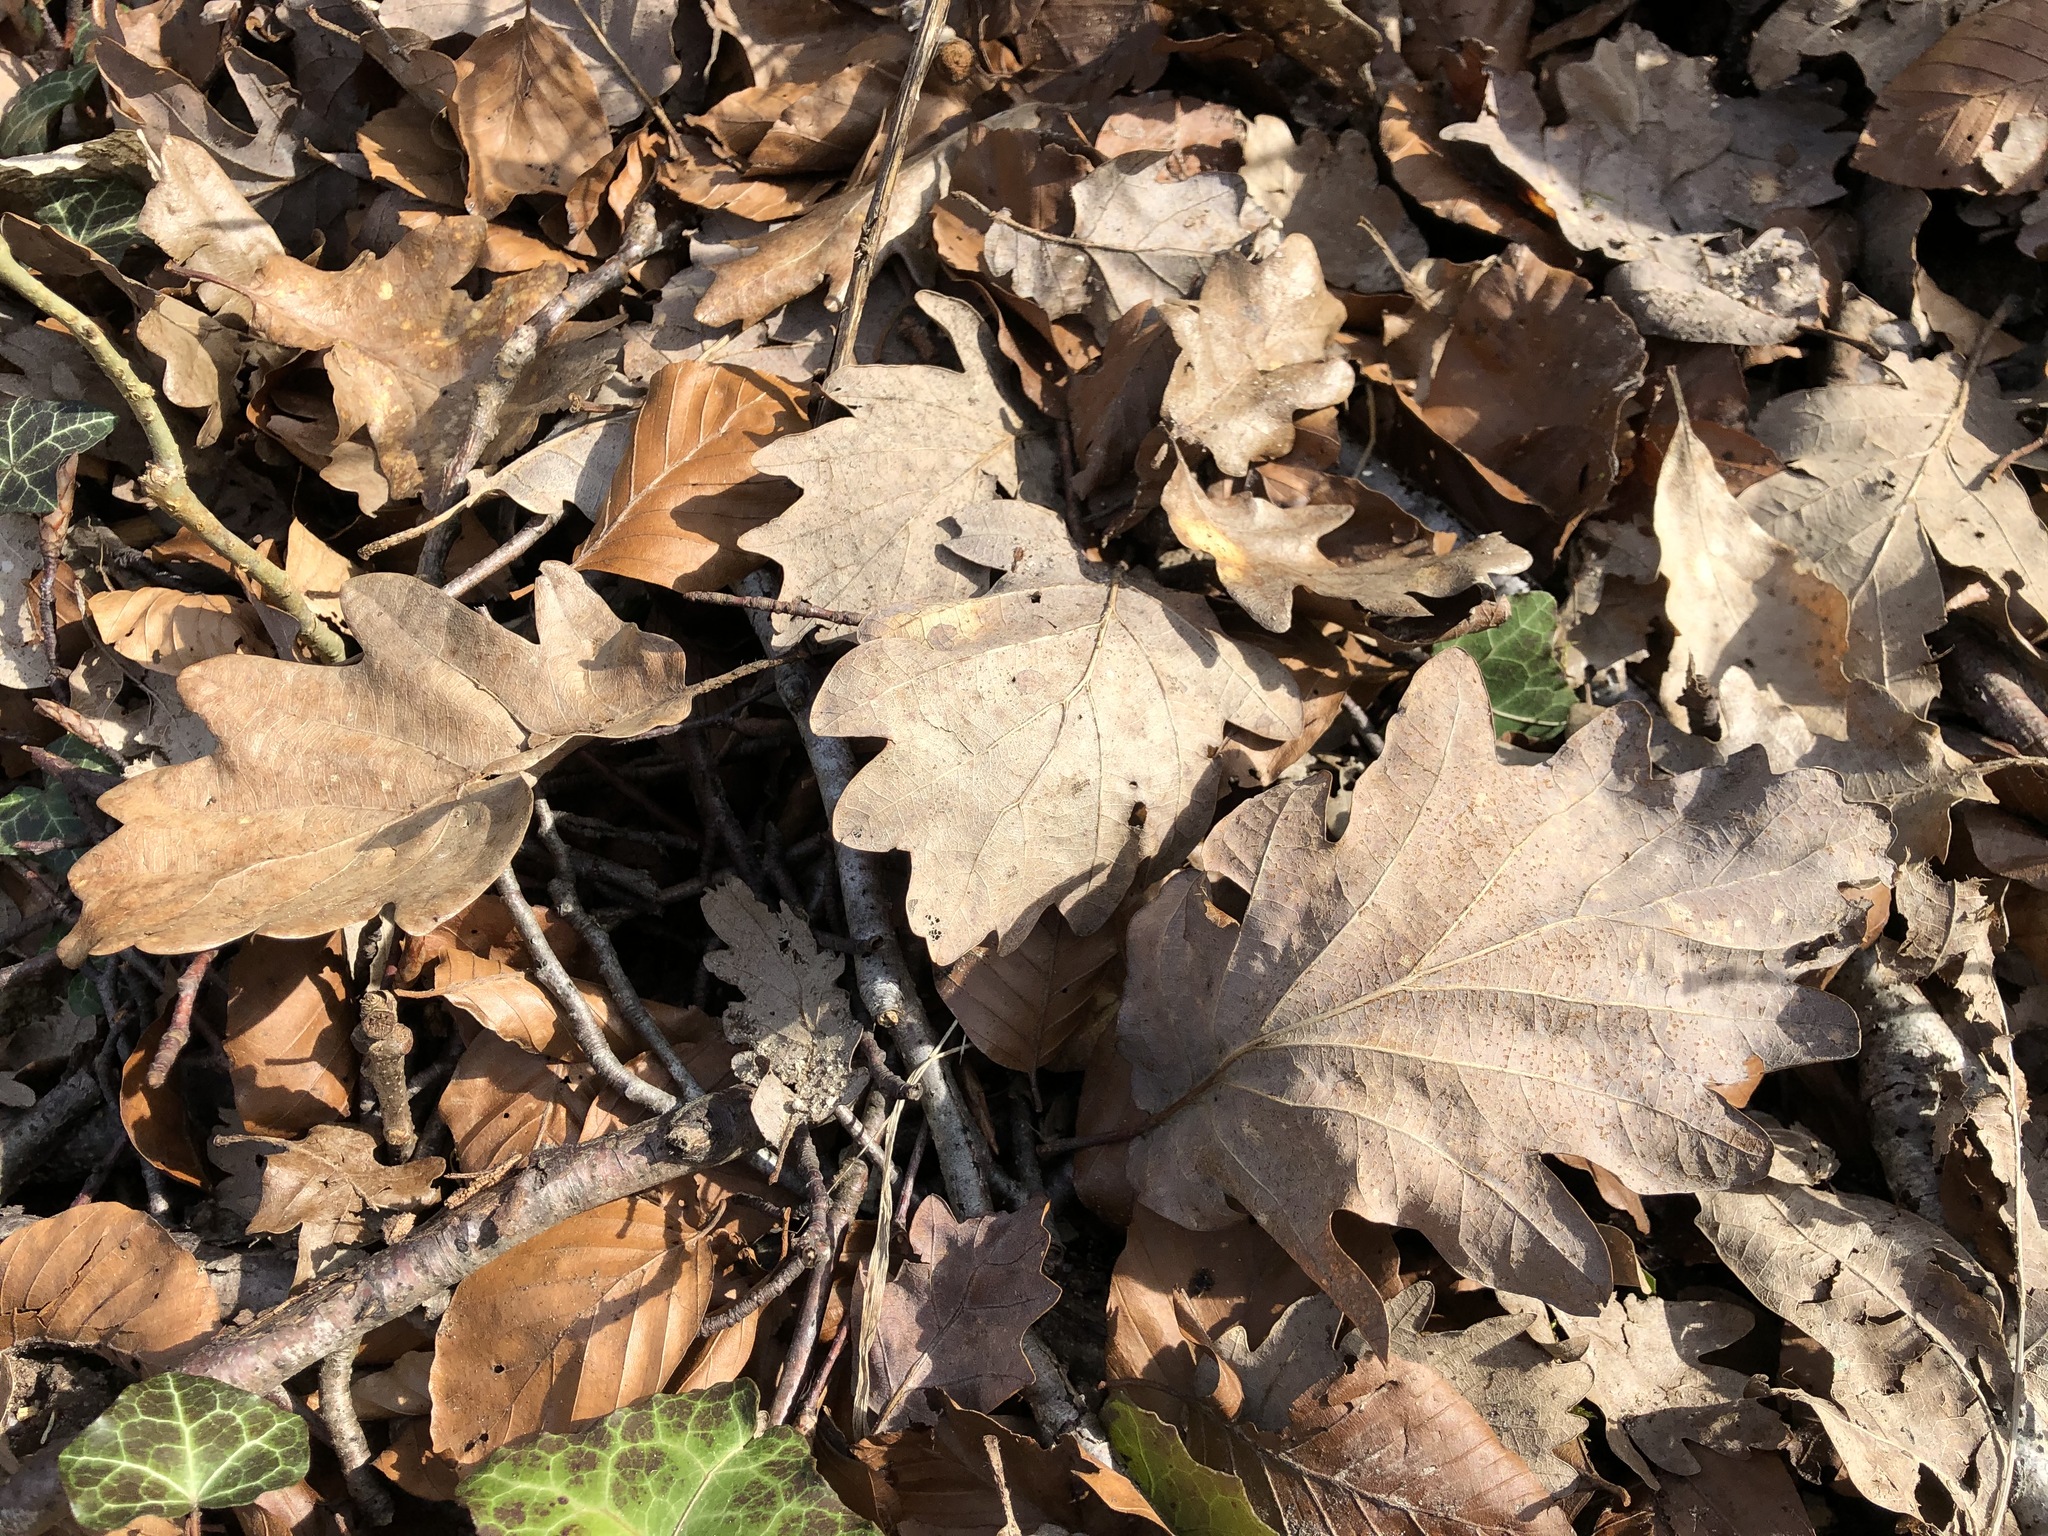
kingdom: Plantae
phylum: Tracheophyta
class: Magnoliopsida
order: Fagales
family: Fagaceae
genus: Quercus
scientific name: Quercus petraea
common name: Sessile oak
